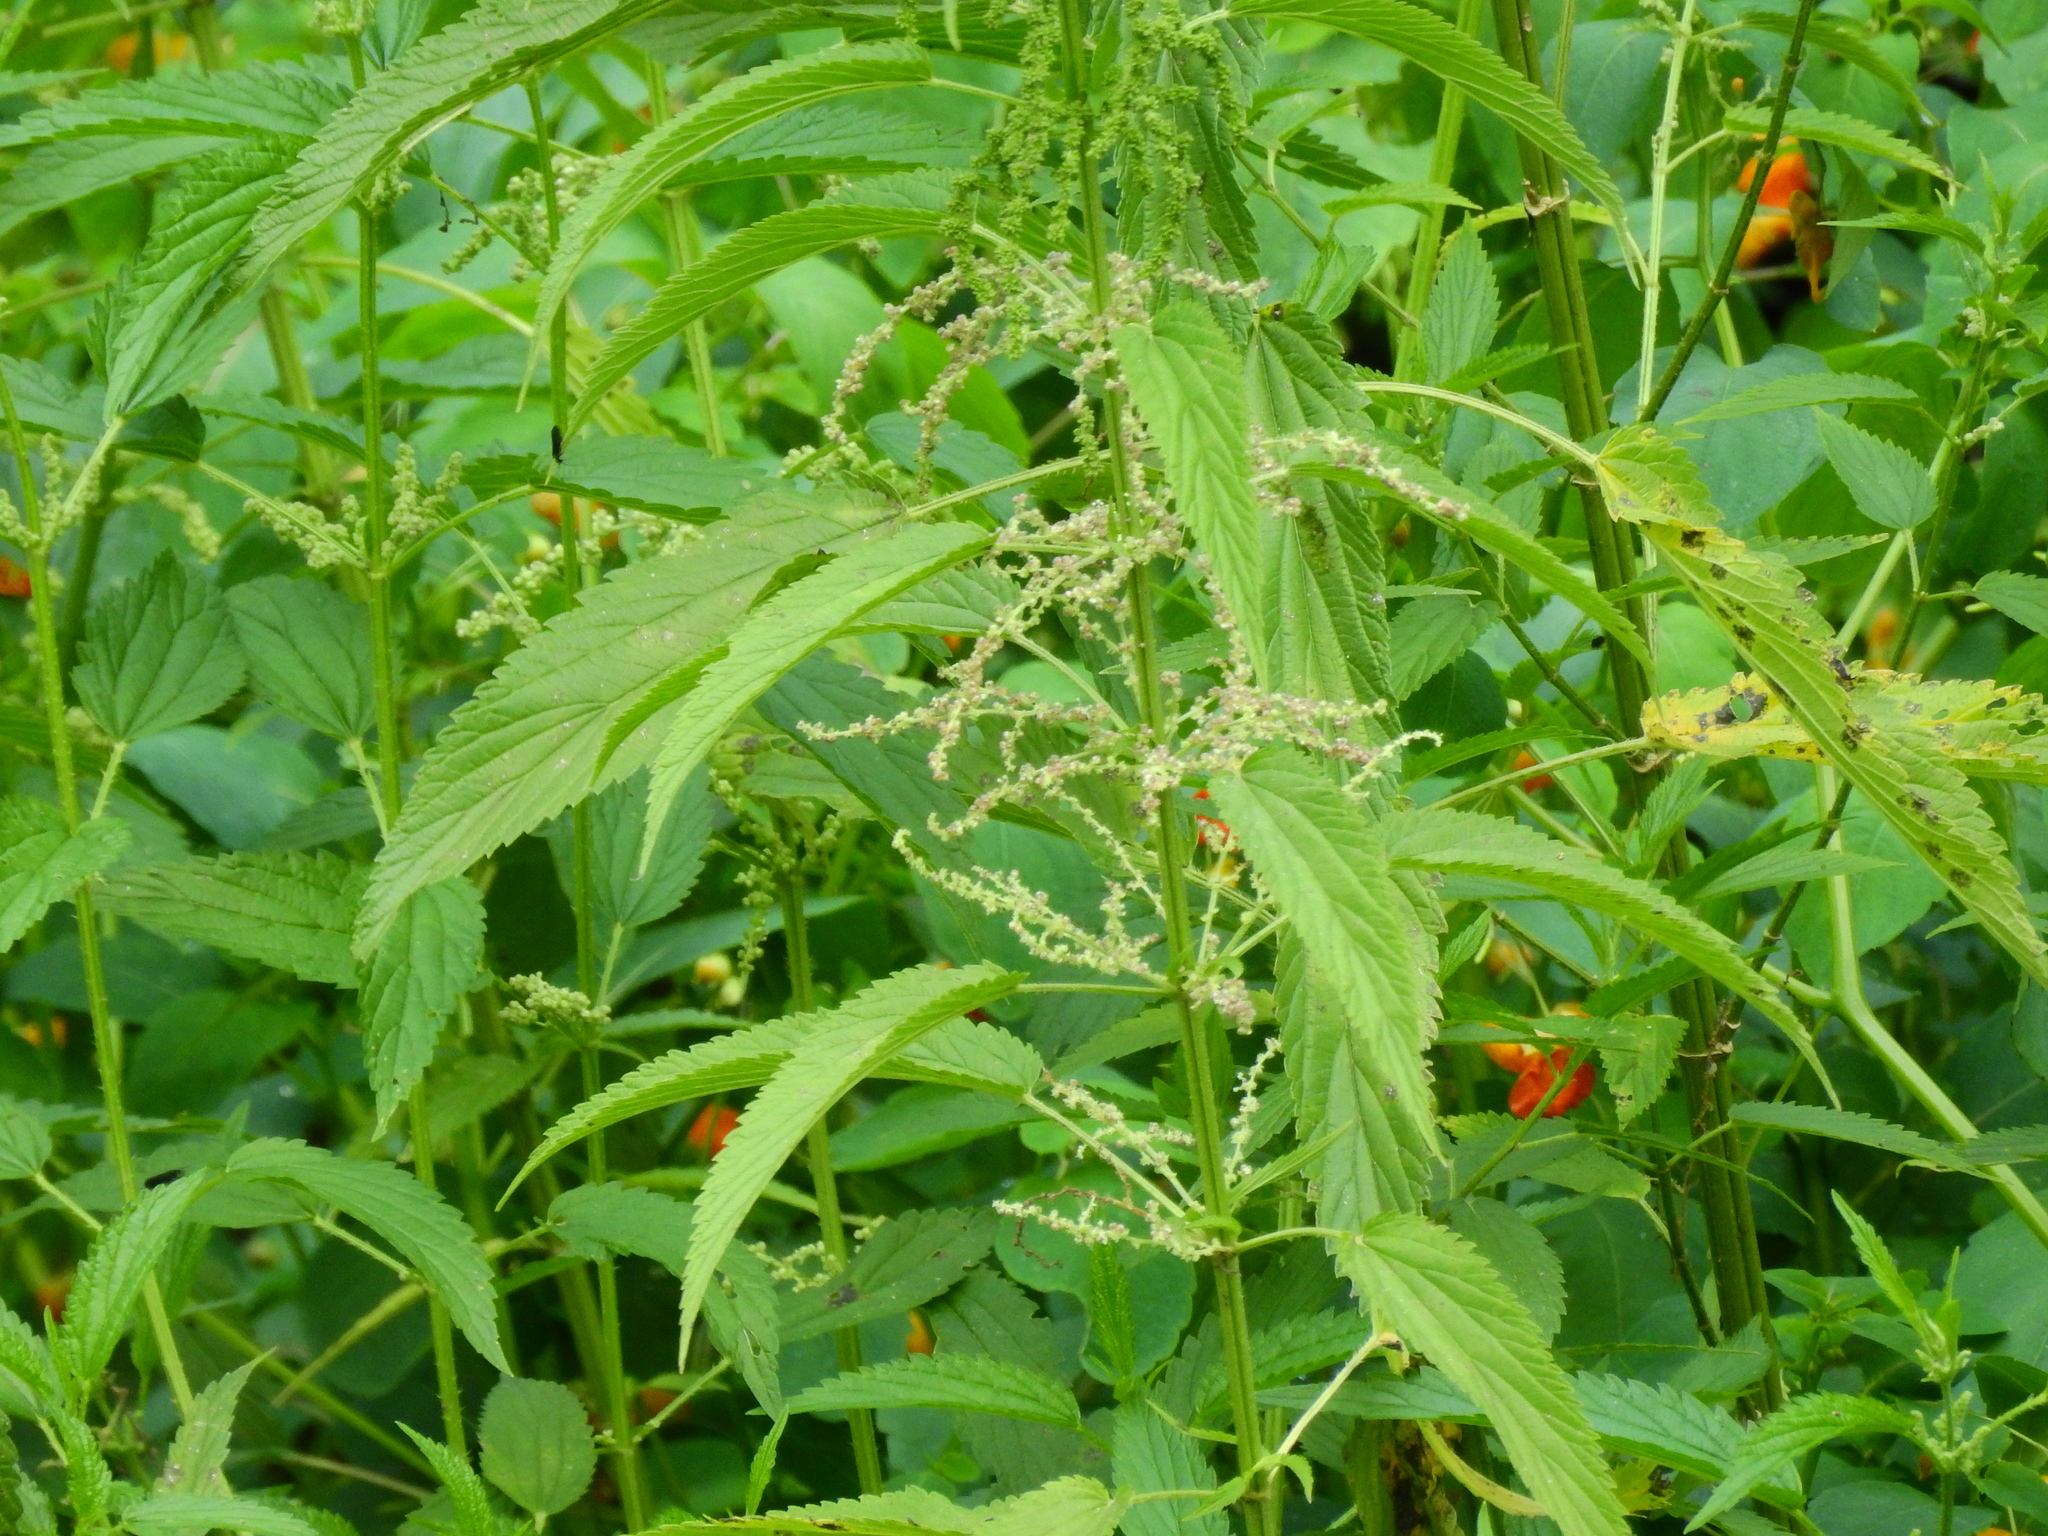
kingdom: Plantae
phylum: Tracheophyta
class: Magnoliopsida
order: Rosales
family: Urticaceae
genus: Boehmeria
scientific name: Boehmeria cylindrica
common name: Bog-hemp
